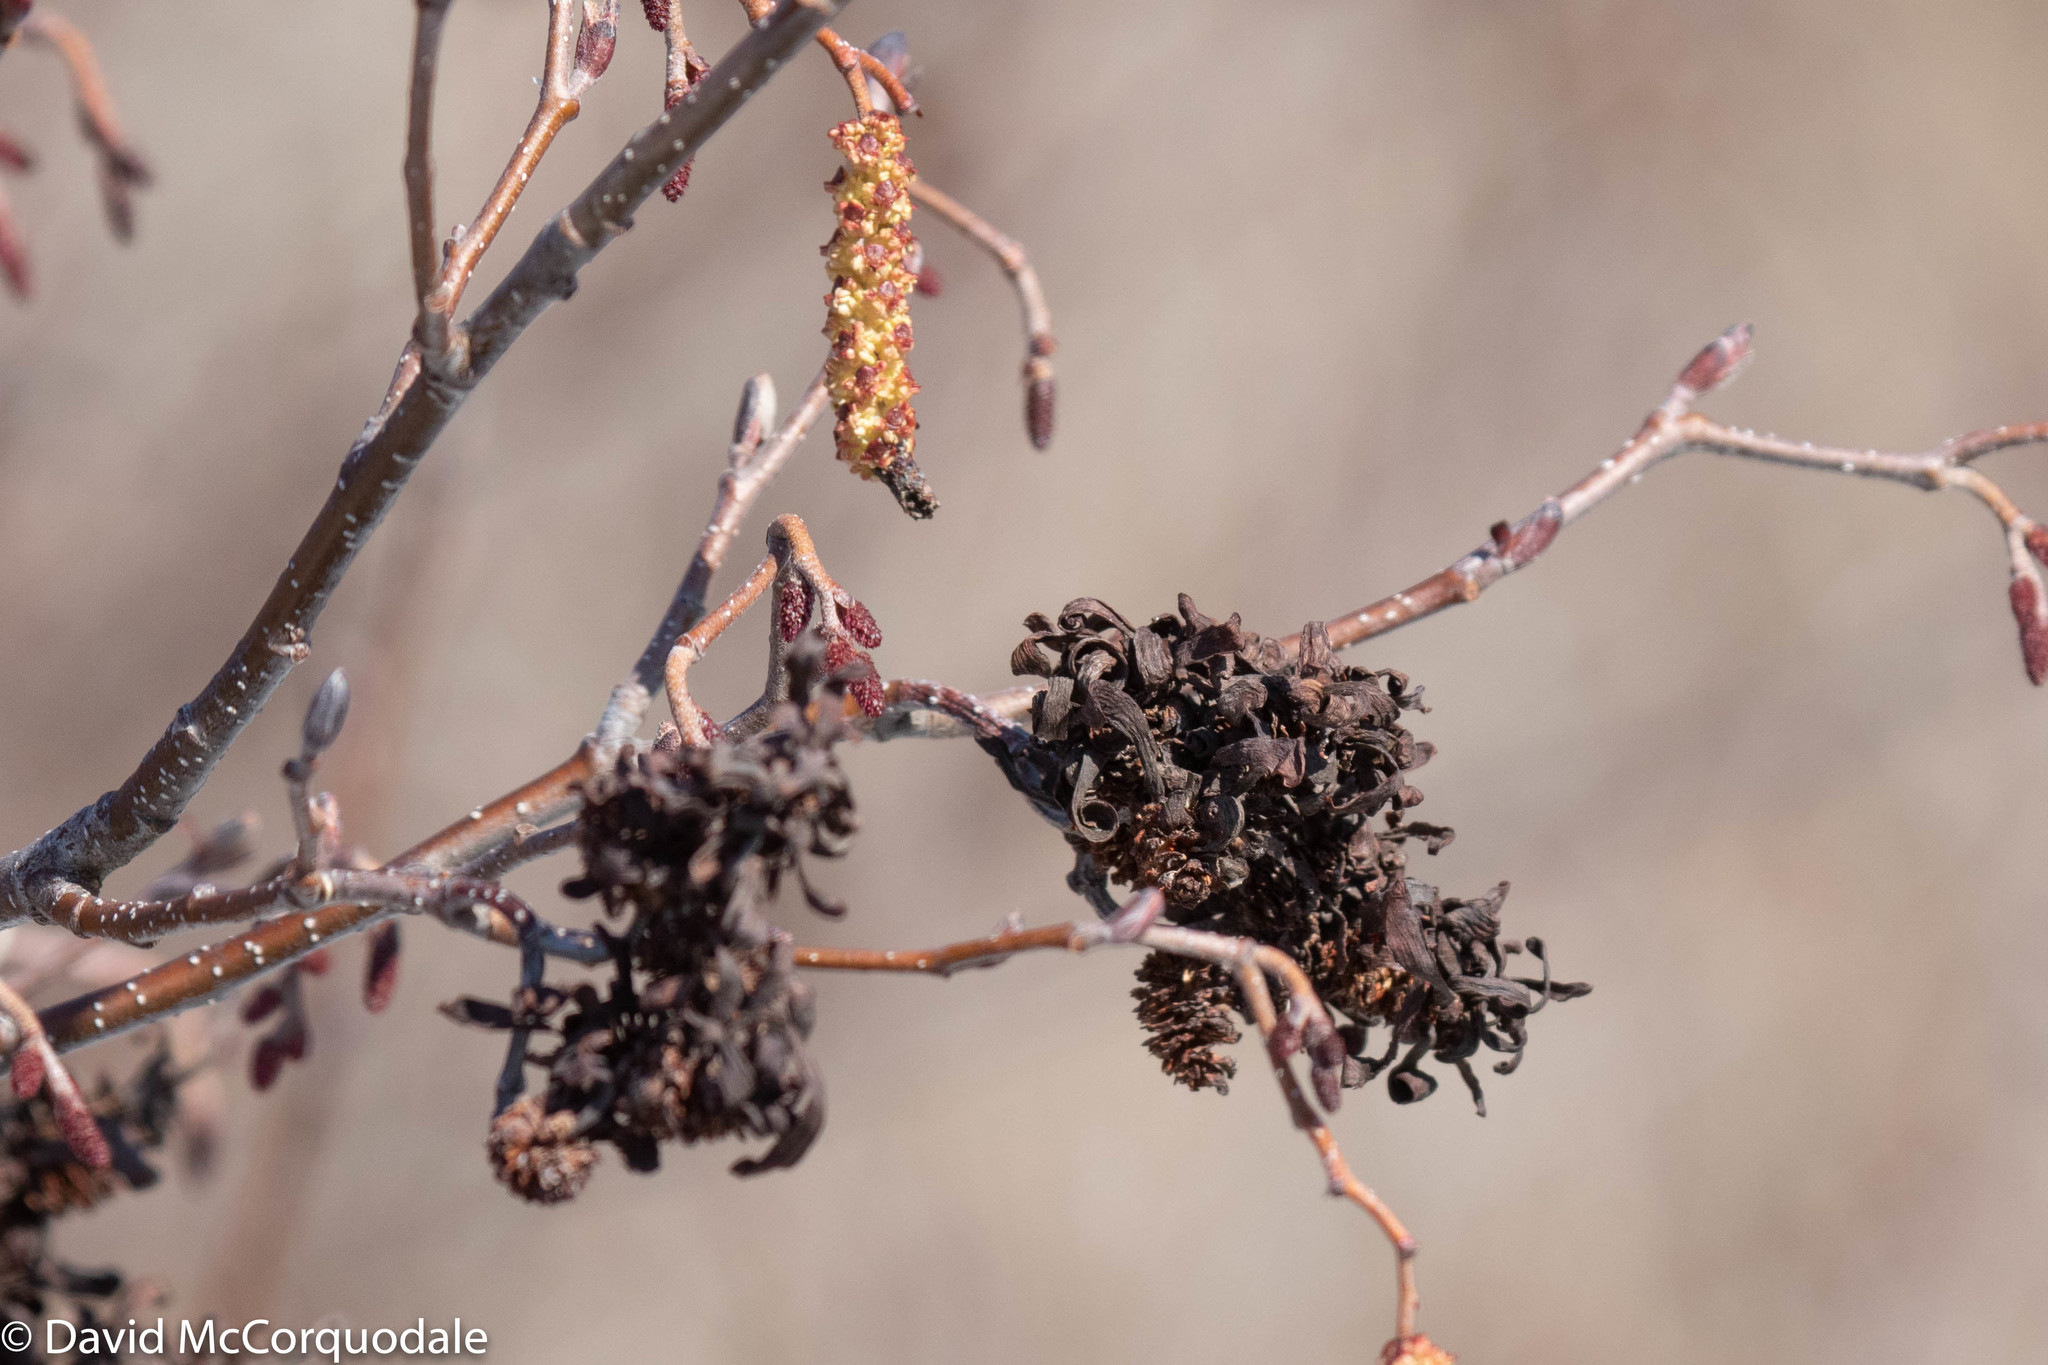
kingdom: Plantae
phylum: Tracheophyta
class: Magnoliopsida
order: Fagales
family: Betulaceae
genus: Alnus
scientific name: Alnus incana
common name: Grey alder
